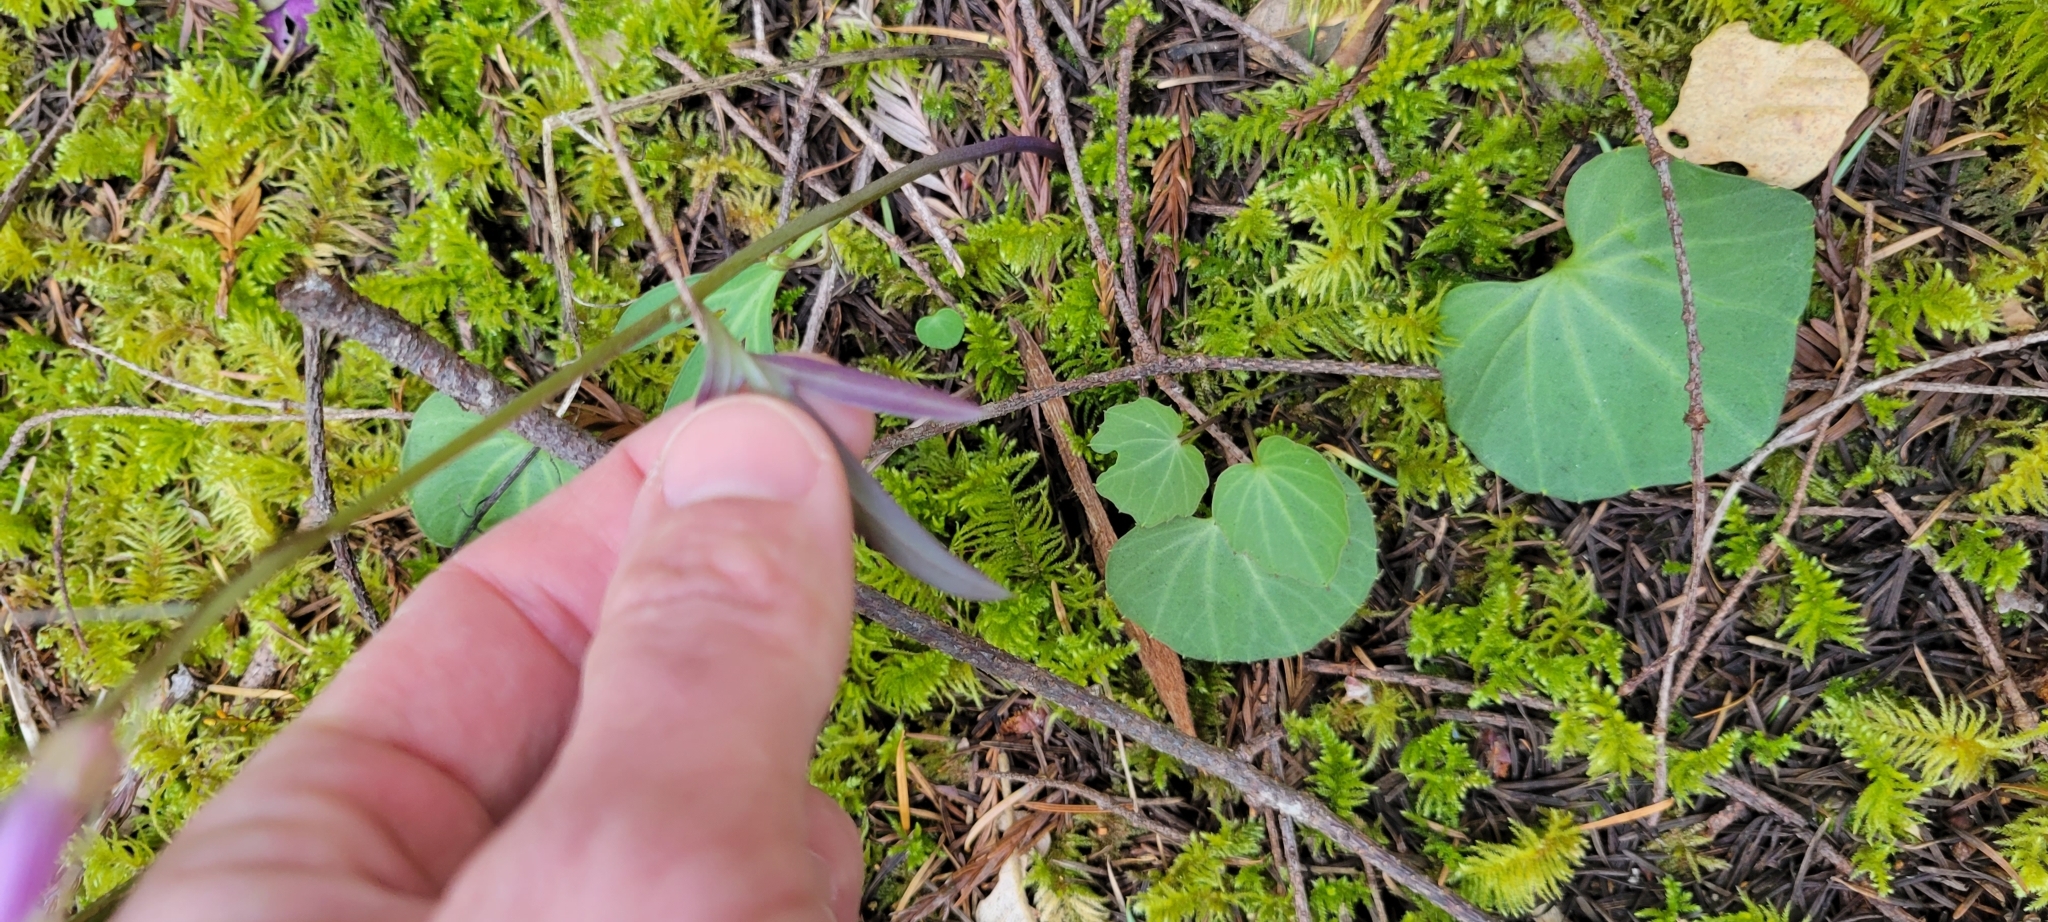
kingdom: Plantae
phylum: Tracheophyta
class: Magnoliopsida
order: Brassicales
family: Brassicaceae
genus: Cardamine
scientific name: Cardamine californica
